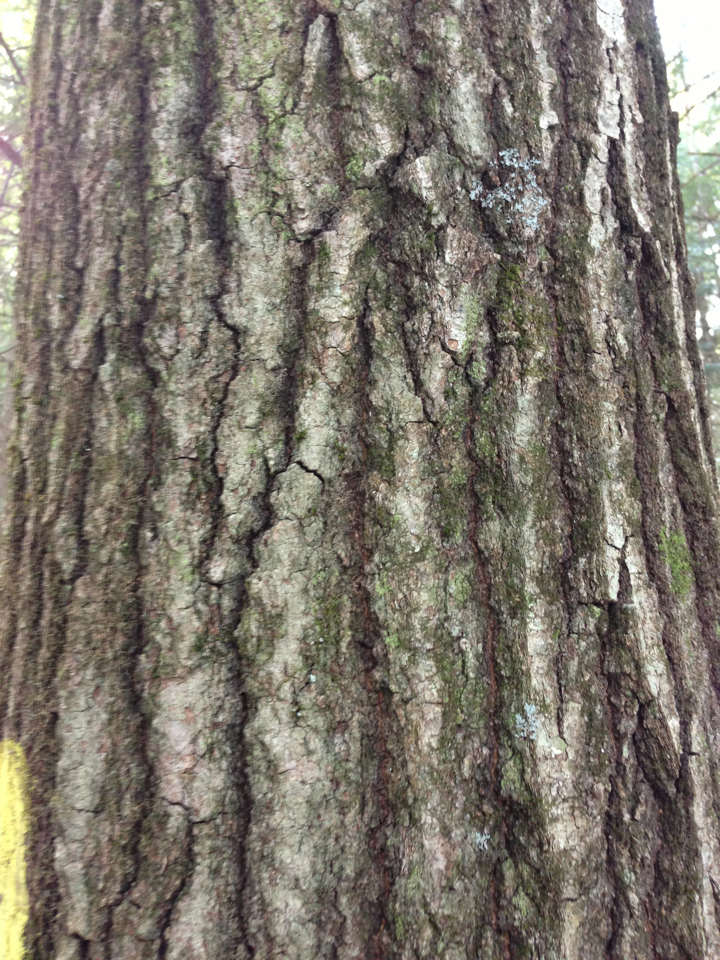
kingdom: Plantae
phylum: Tracheophyta
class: Magnoliopsida
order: Fagales
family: Fagaceae
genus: Quercus
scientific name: Quercus rubra
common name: Red oak
